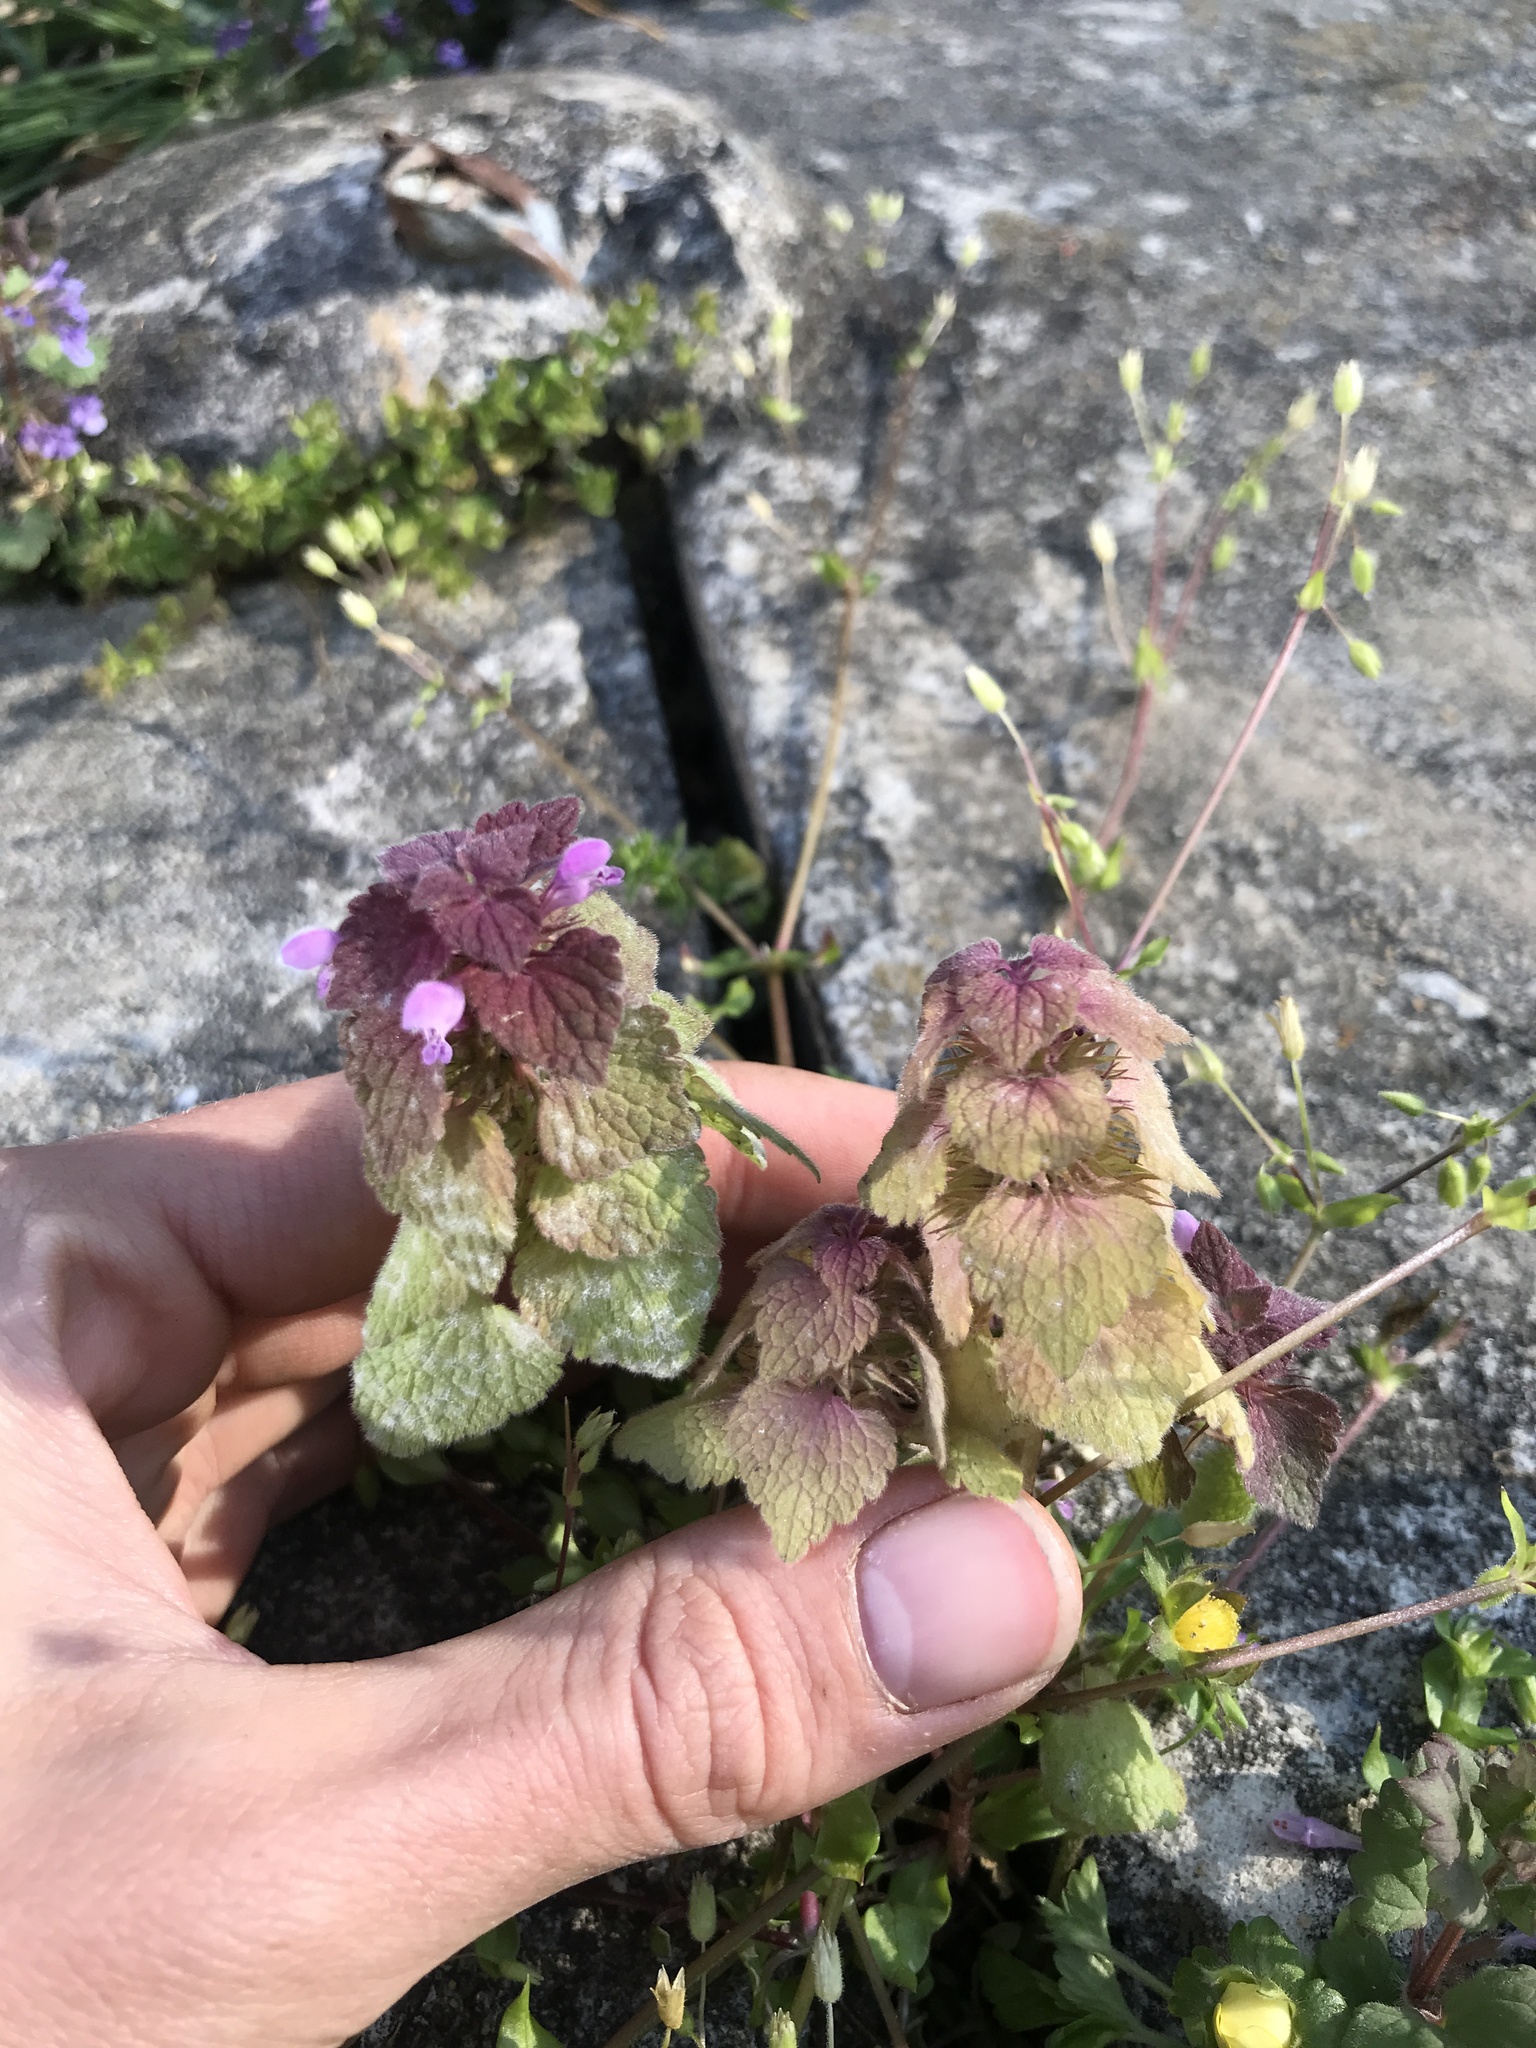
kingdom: Plantae
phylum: Tracheophyta
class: Magnoliopsida
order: Lamiales
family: Lamiaceae
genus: Lamium
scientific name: Lamium purpureum
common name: Red dead-nettle
